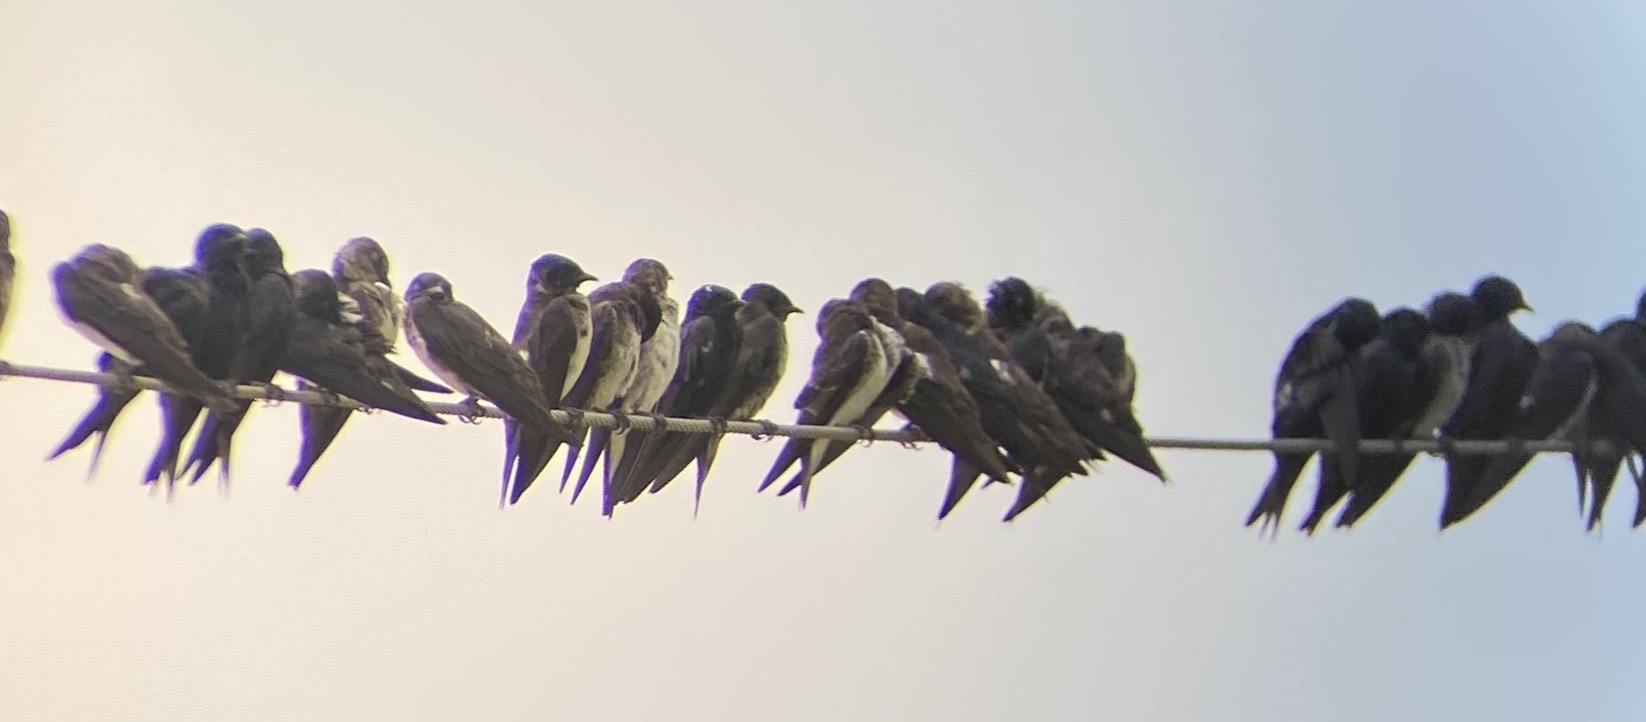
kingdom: Animalia
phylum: Chordata
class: Aves
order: Passeriformes
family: Hirundinidae
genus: Progne
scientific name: Progne subis
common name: Purple martin
